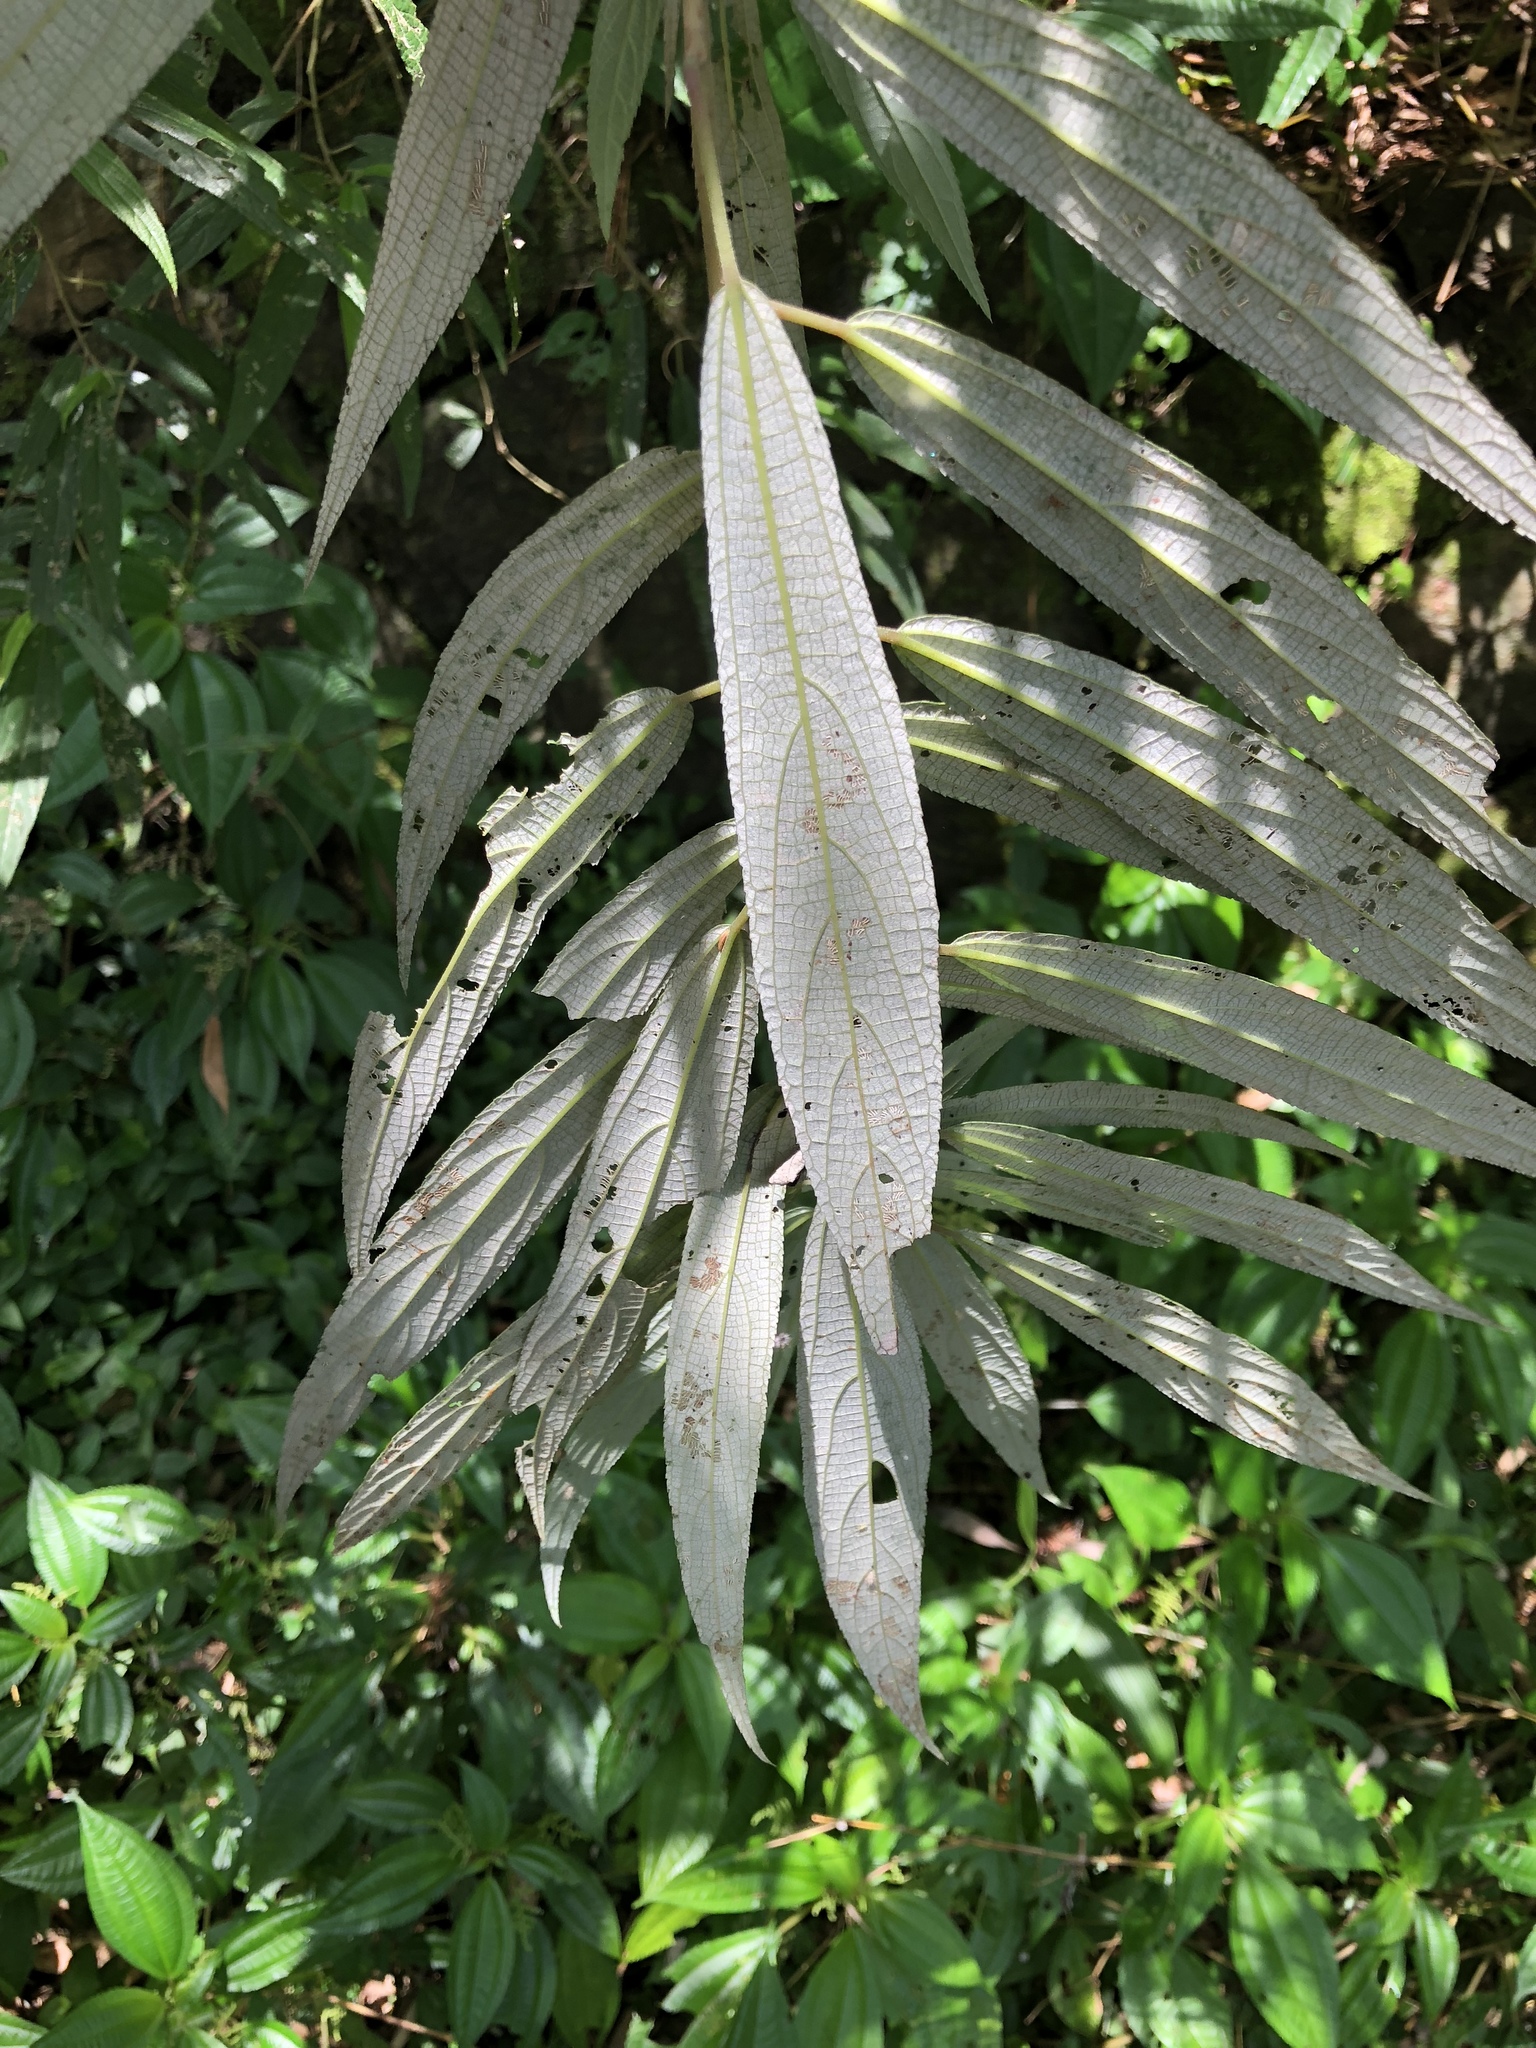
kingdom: Plantae
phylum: Tracheophyta
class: Magnoliopsida
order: Rosales
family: Urticaceae
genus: Debregeasia
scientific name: Debregeasia orientalis
